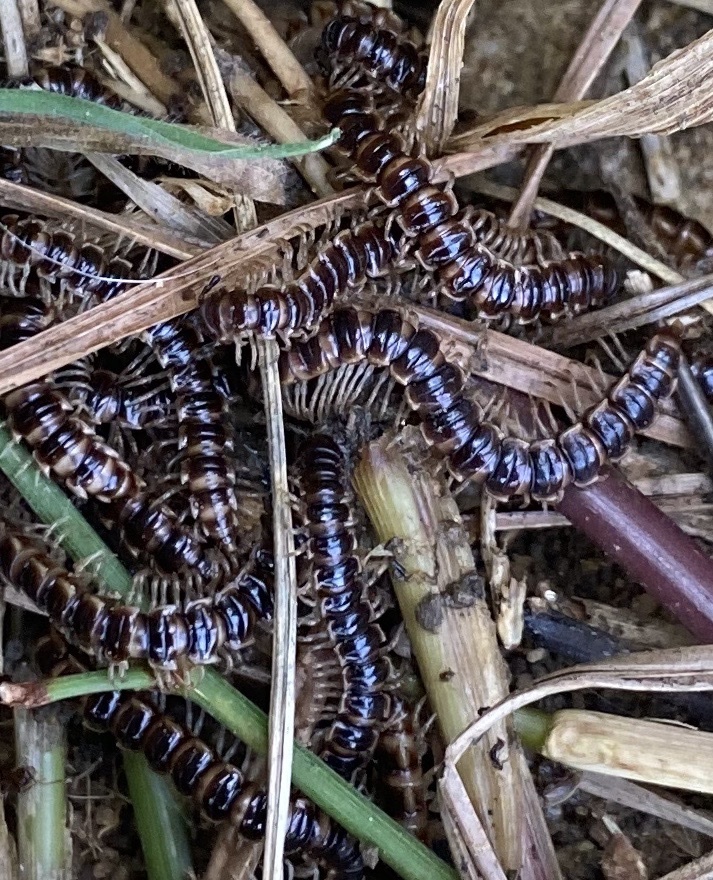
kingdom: Animalia
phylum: Arthropoda
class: Diplopoda
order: Polydesmida
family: Paradoxosomatidae
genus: Oxidus
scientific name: Oxidus gracilis
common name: Greenhouse millipede
